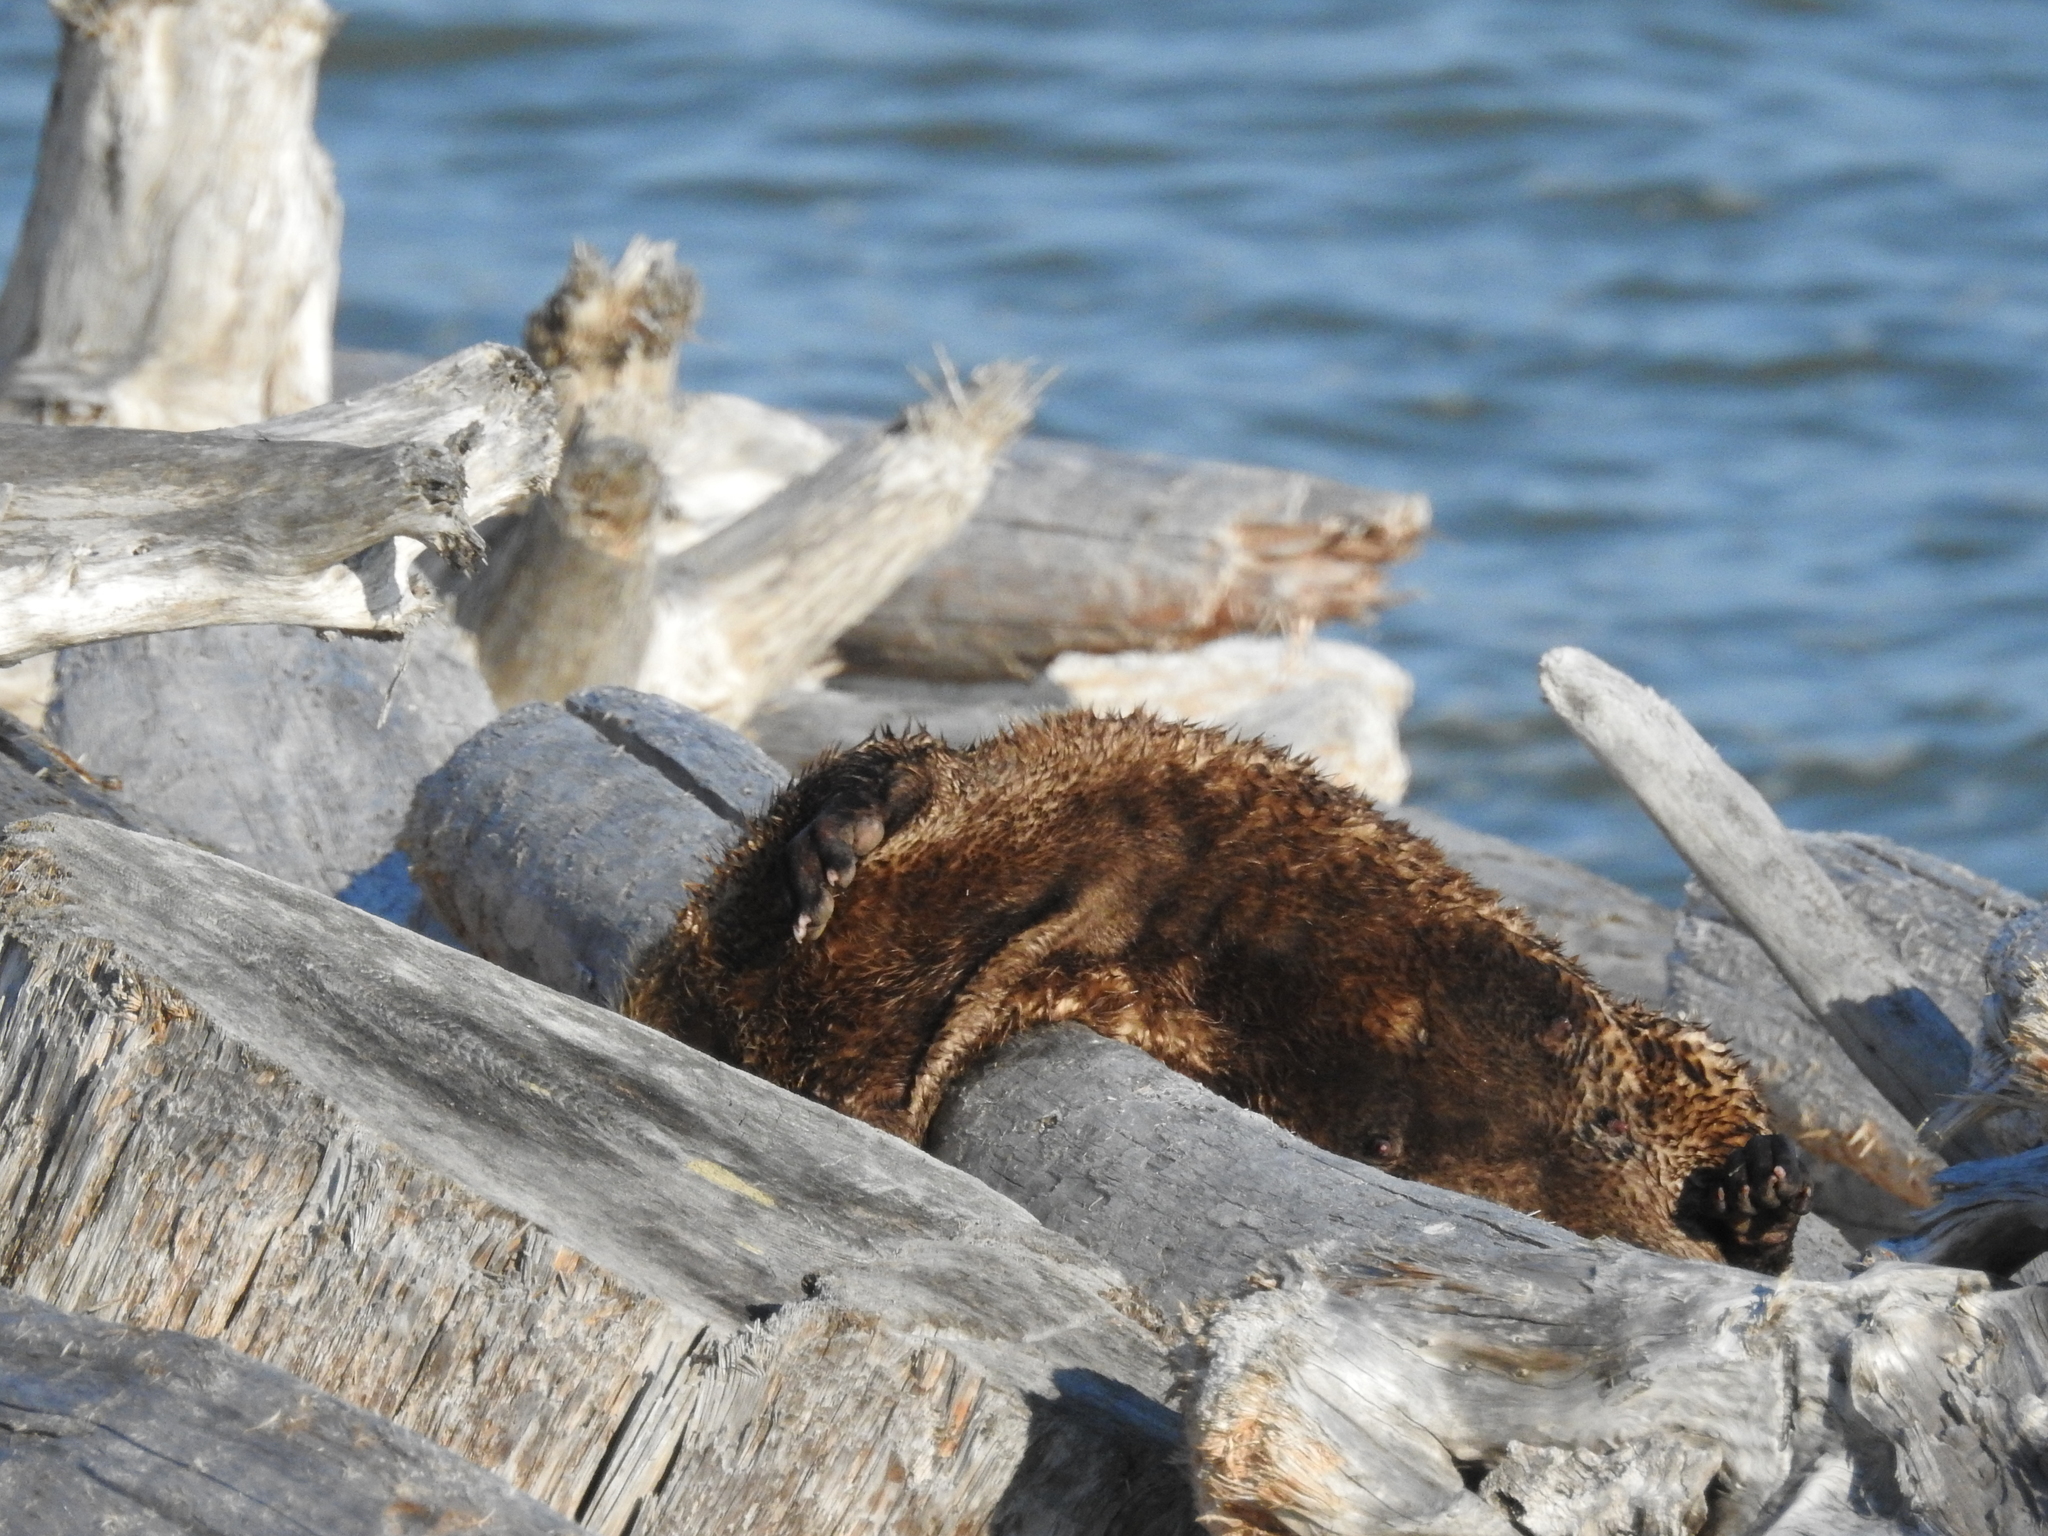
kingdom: Animalia
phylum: Chordata
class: Mammalia
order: Carnivora
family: Mustelidae
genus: Lontra
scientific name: Lontra canadensis
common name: North american river otter
